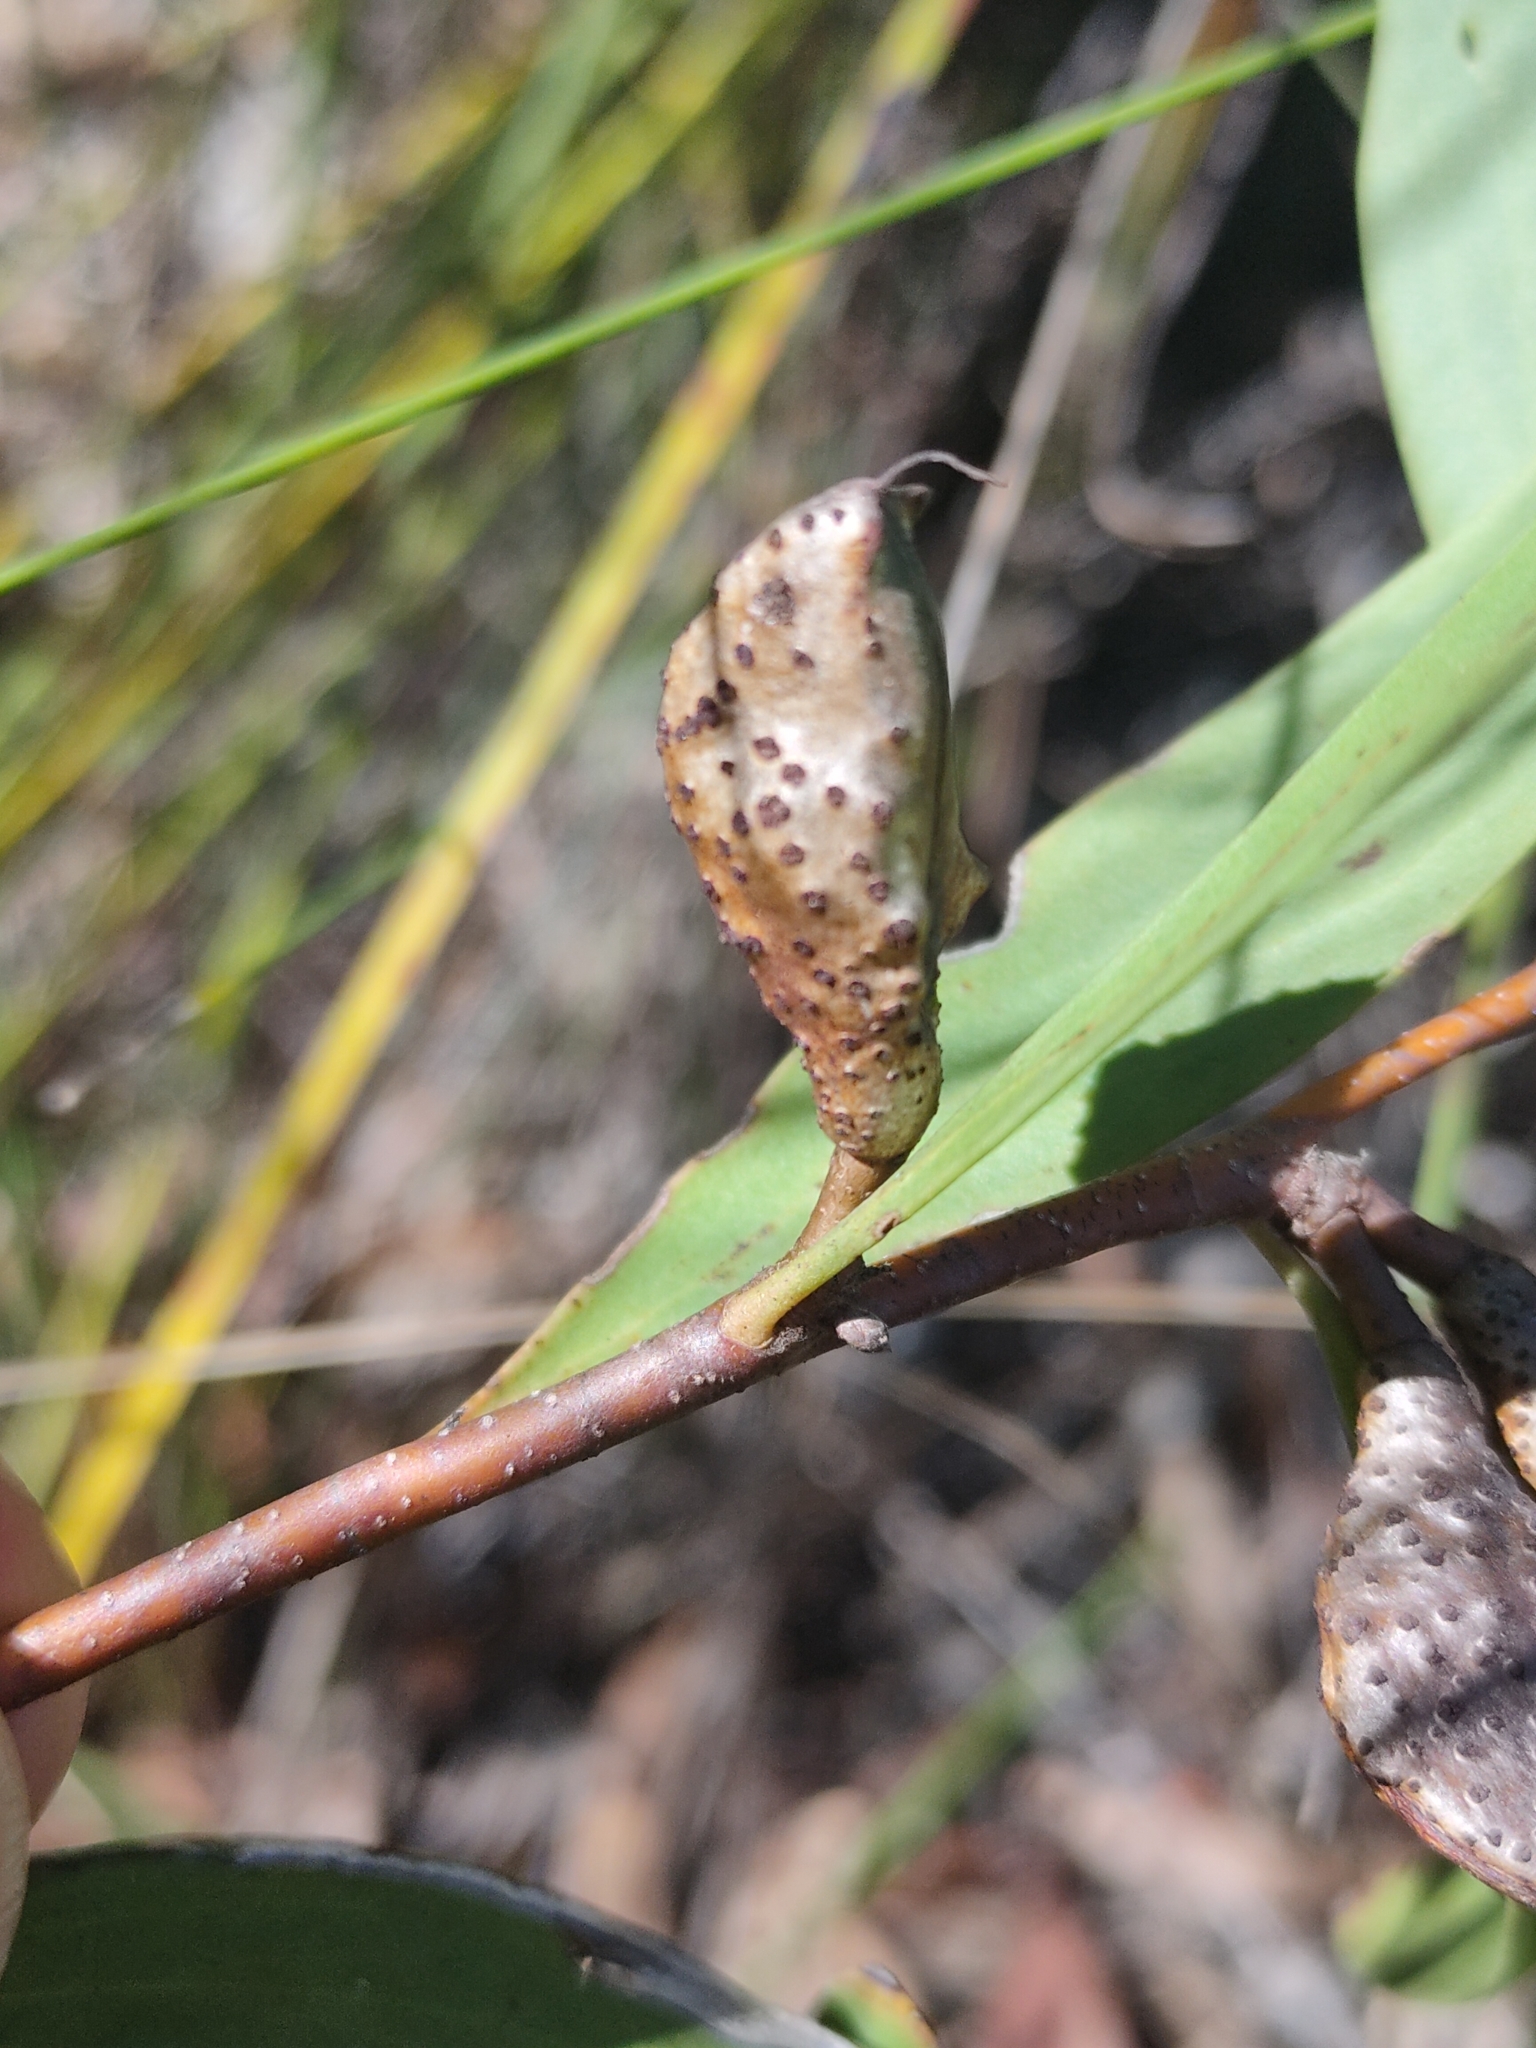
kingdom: Plantae
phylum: Tracheophyta
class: Magnoliopsida
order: Proteales
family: Proteaceae
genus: Hakea
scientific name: Hakea florulenta
